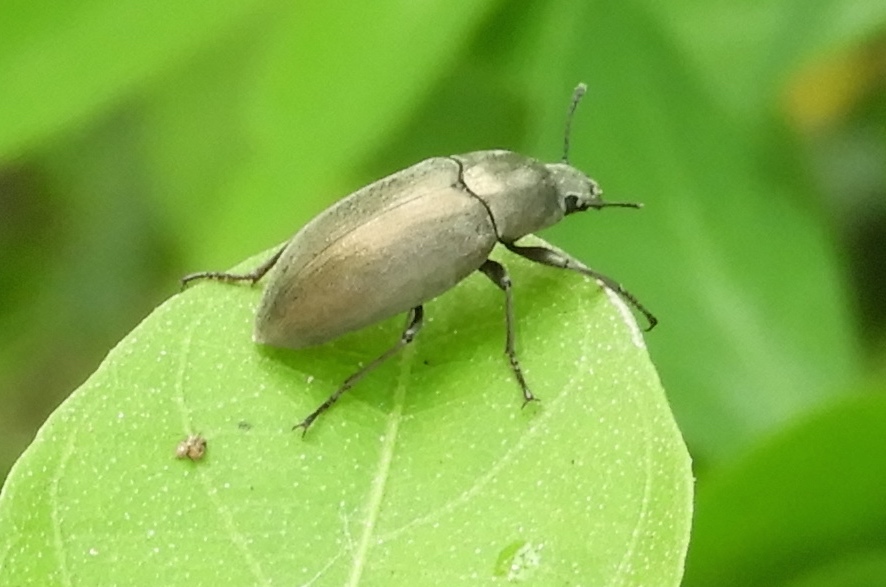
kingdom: Animalia
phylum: Arthropoda
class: Insecta
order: Coleoptera
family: Tenebrionidae
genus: Bothrotes
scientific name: Bothrotes
